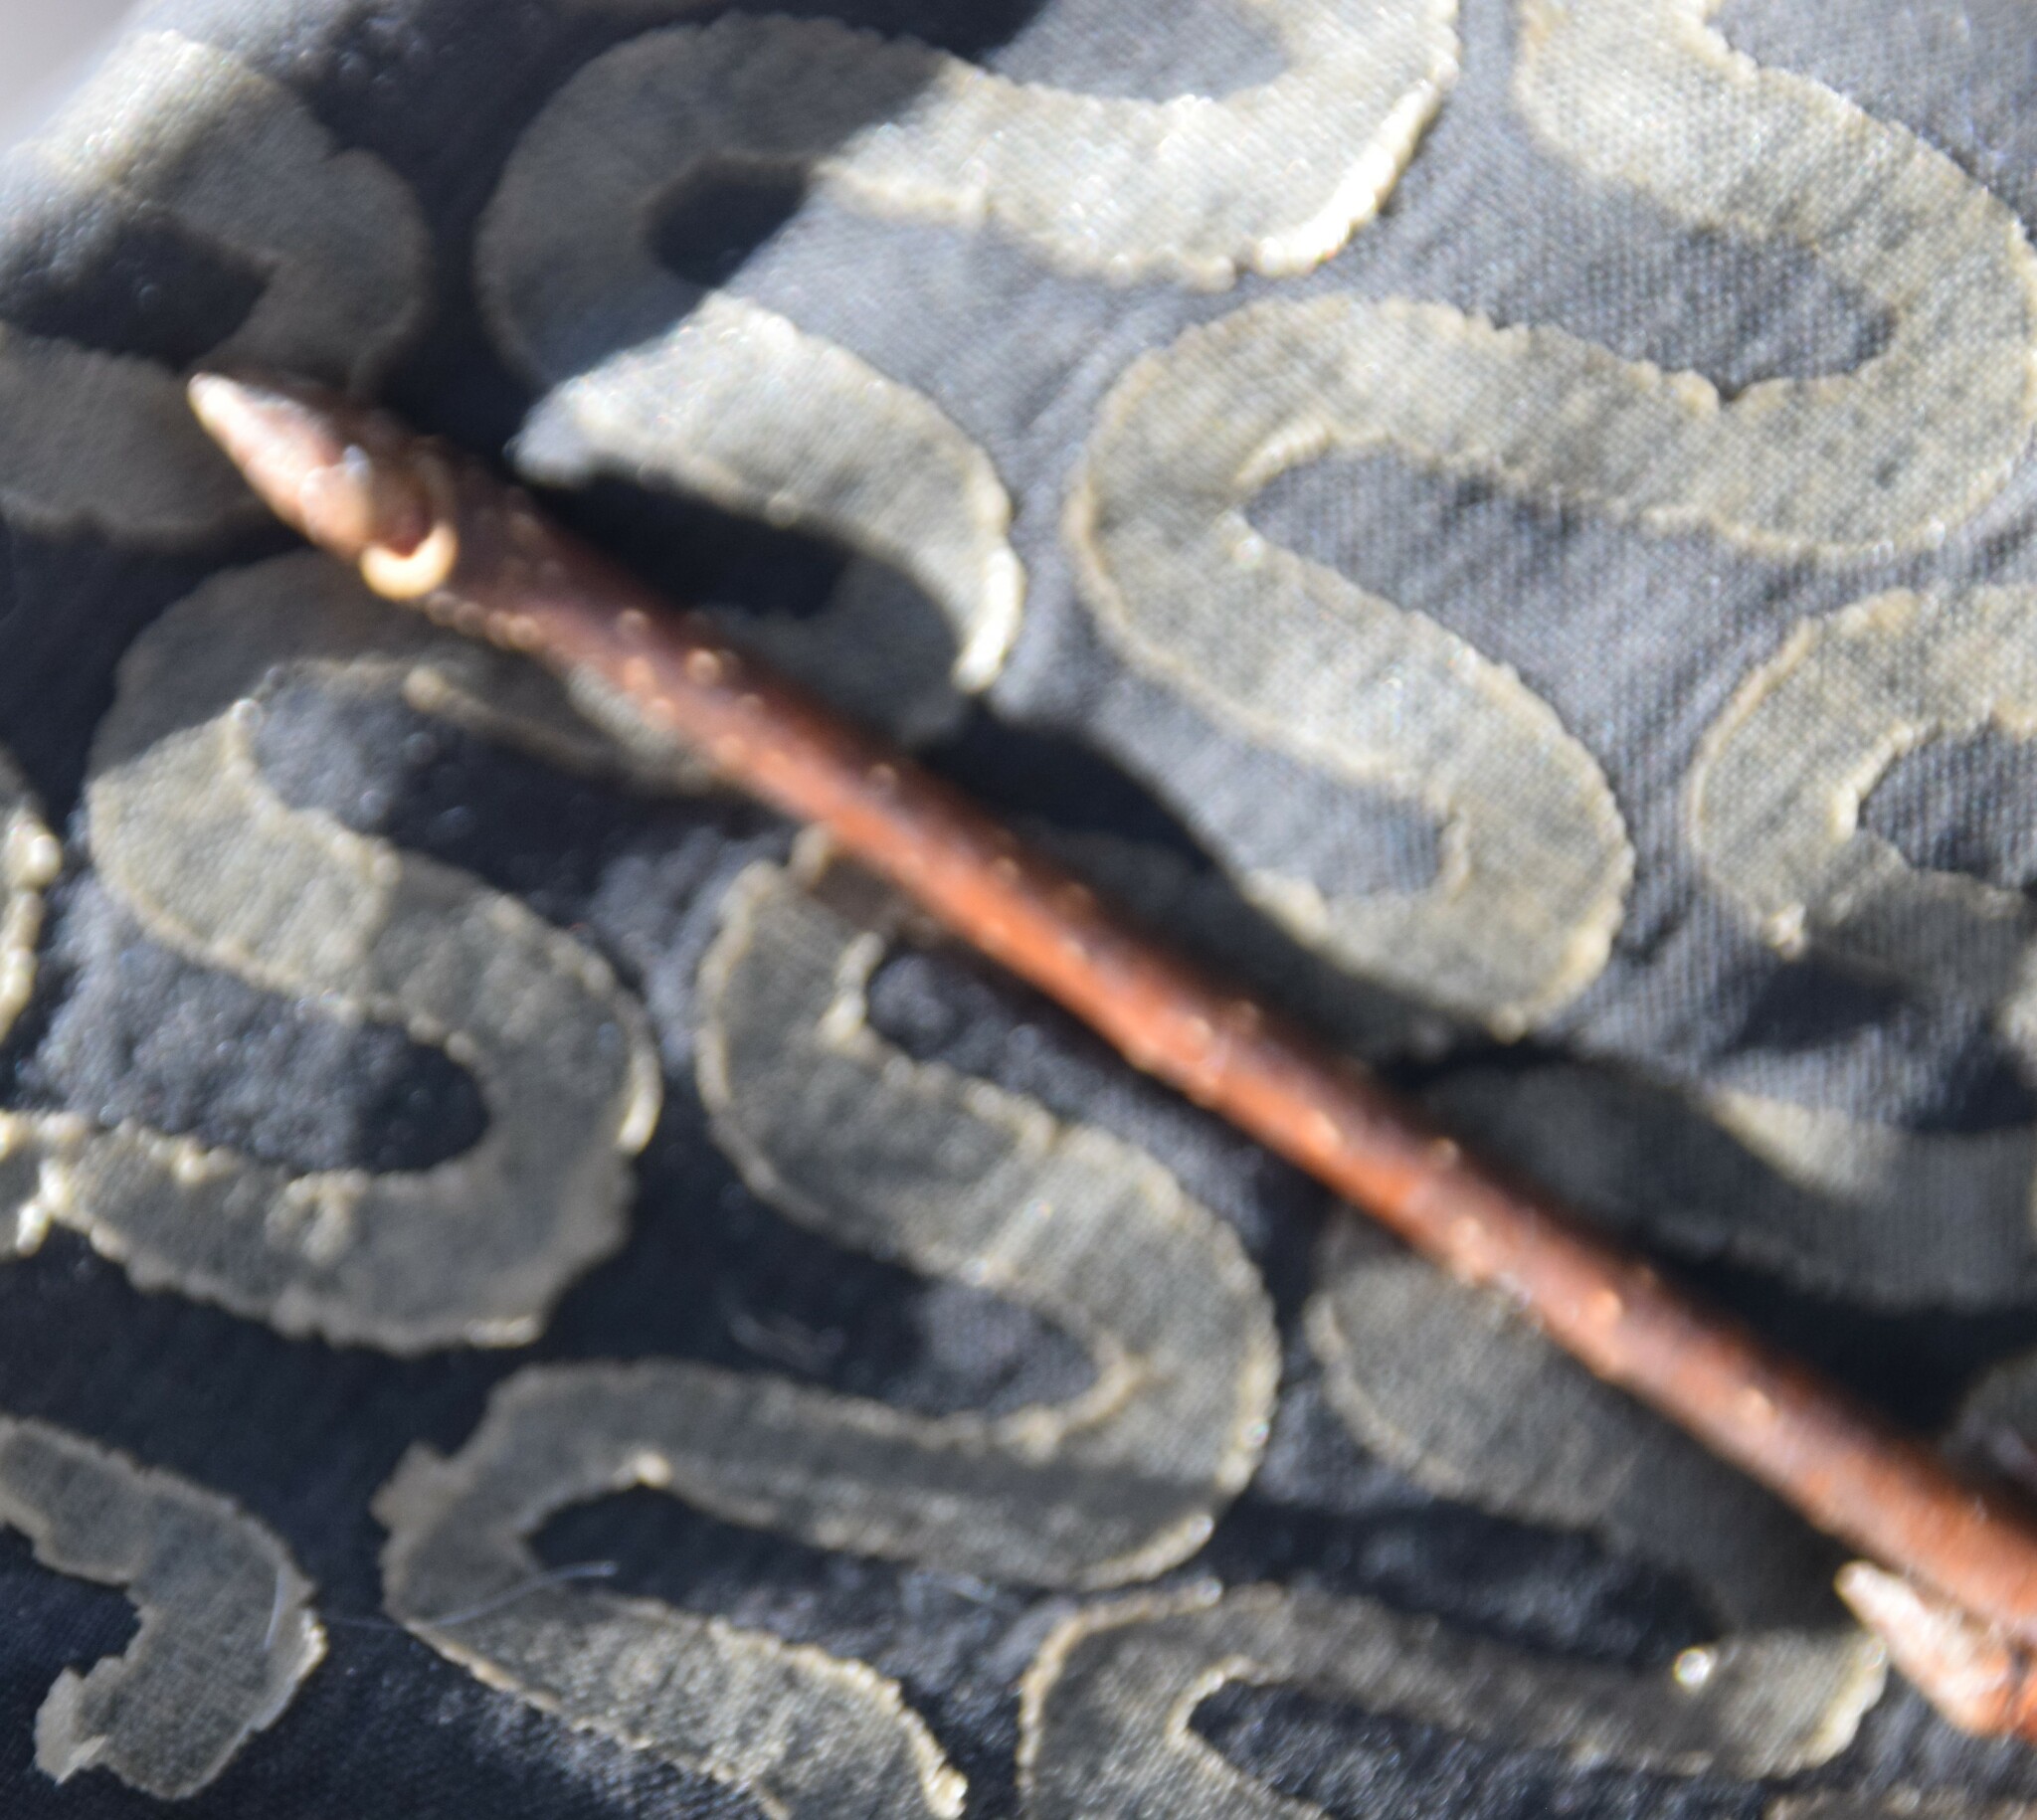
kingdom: Plantae
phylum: Tracheophyta
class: Magnoliopsida
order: Sapindales
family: Sapindaceae
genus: Acer
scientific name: Acer saccharum
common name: Sugar maple
